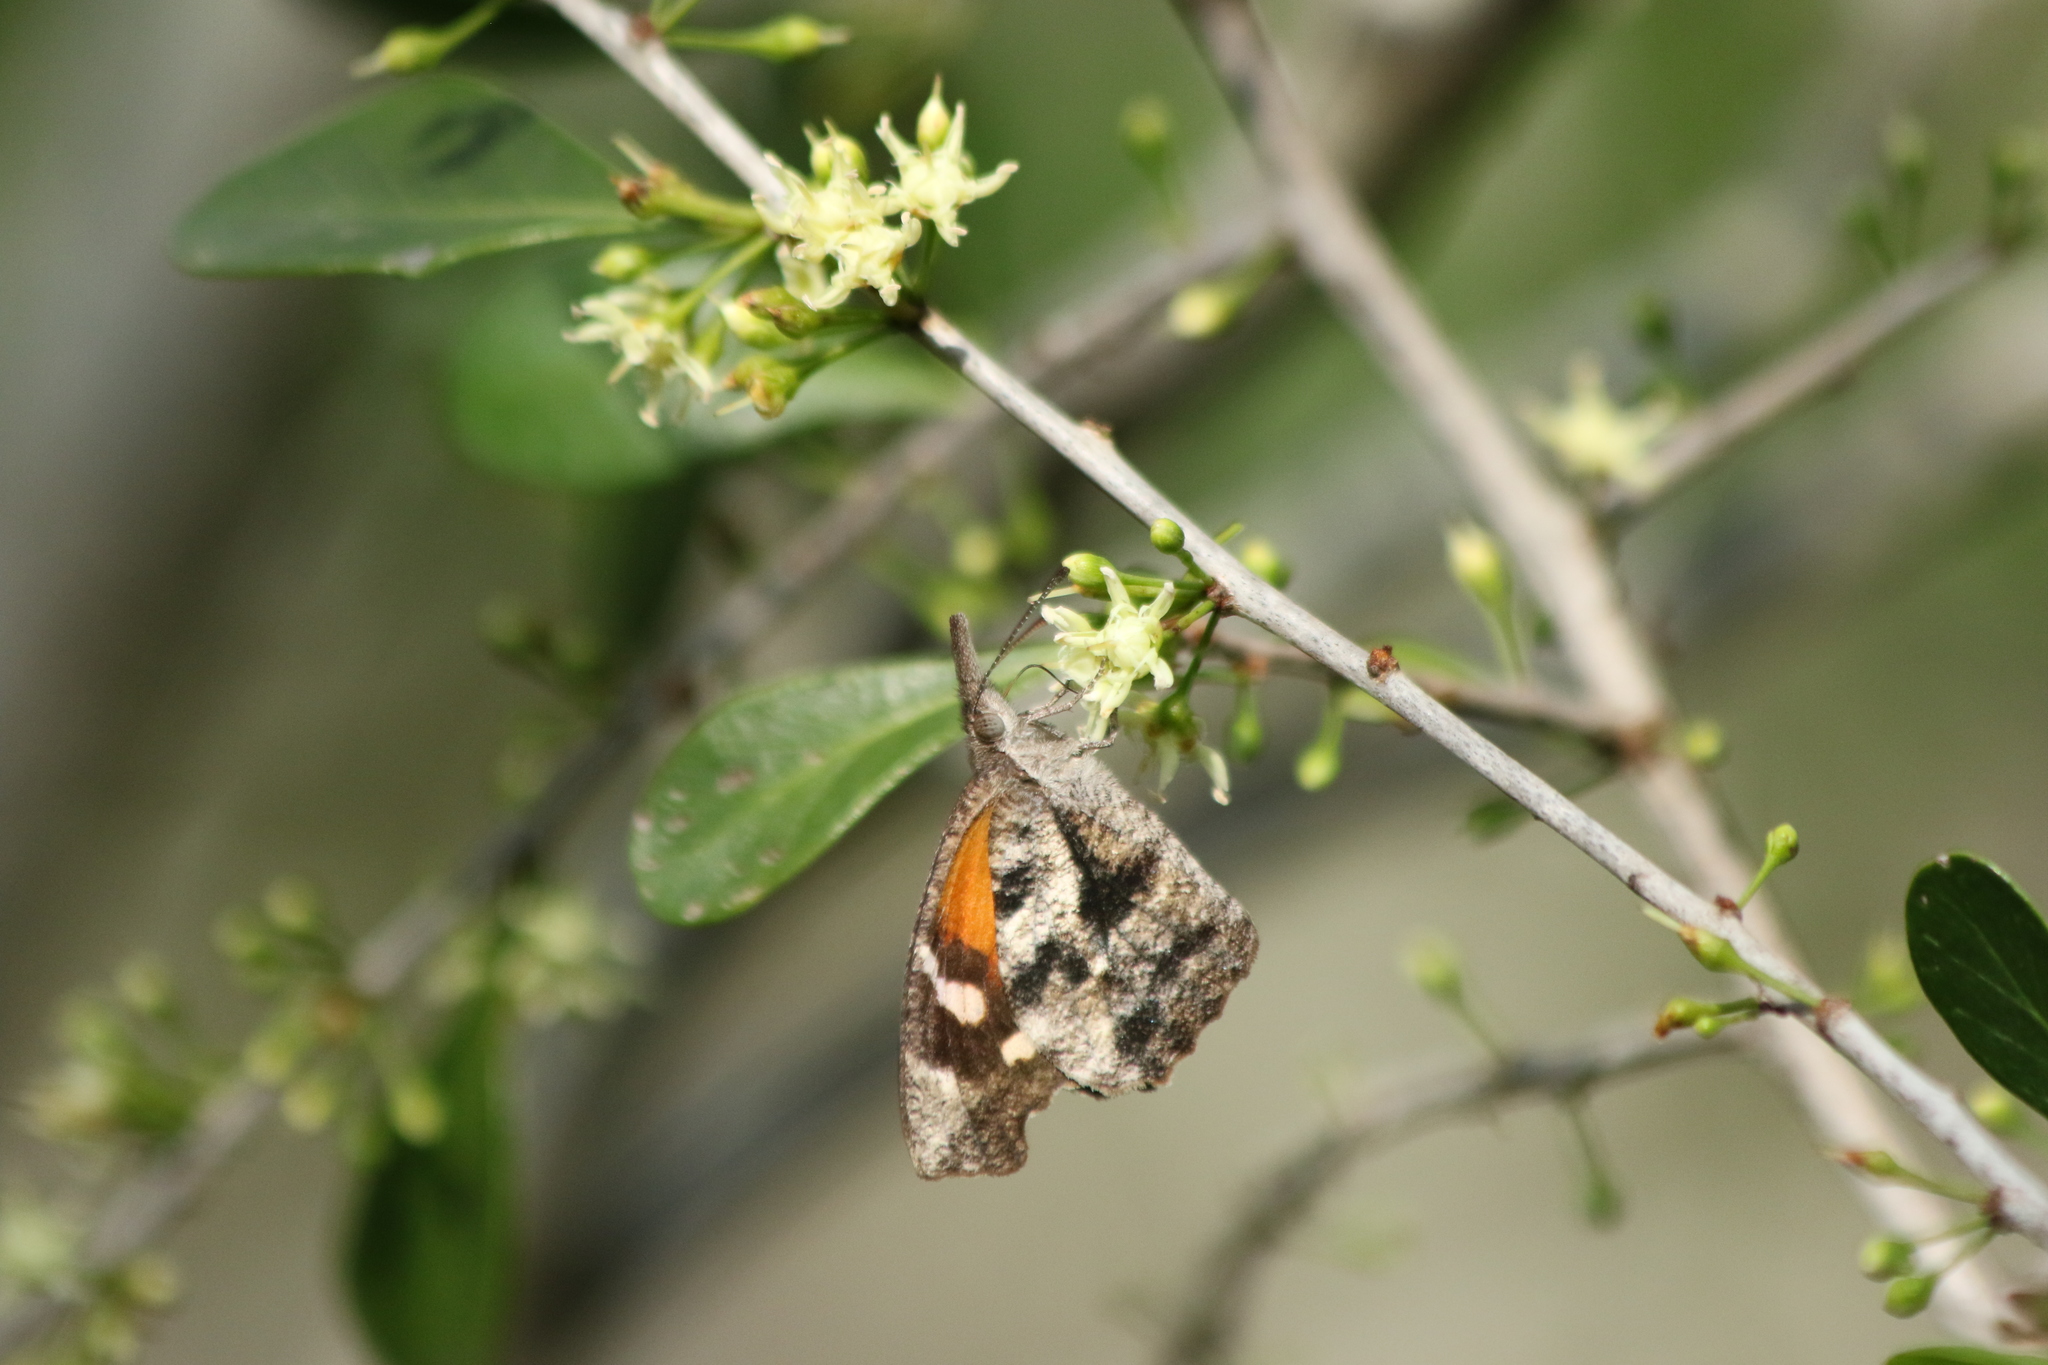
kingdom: Animalia
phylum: Arthropoda
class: Insecta
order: Lepidoptera
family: Nymphalidae
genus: Libytheana
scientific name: Libytheana carinenta
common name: American snout
